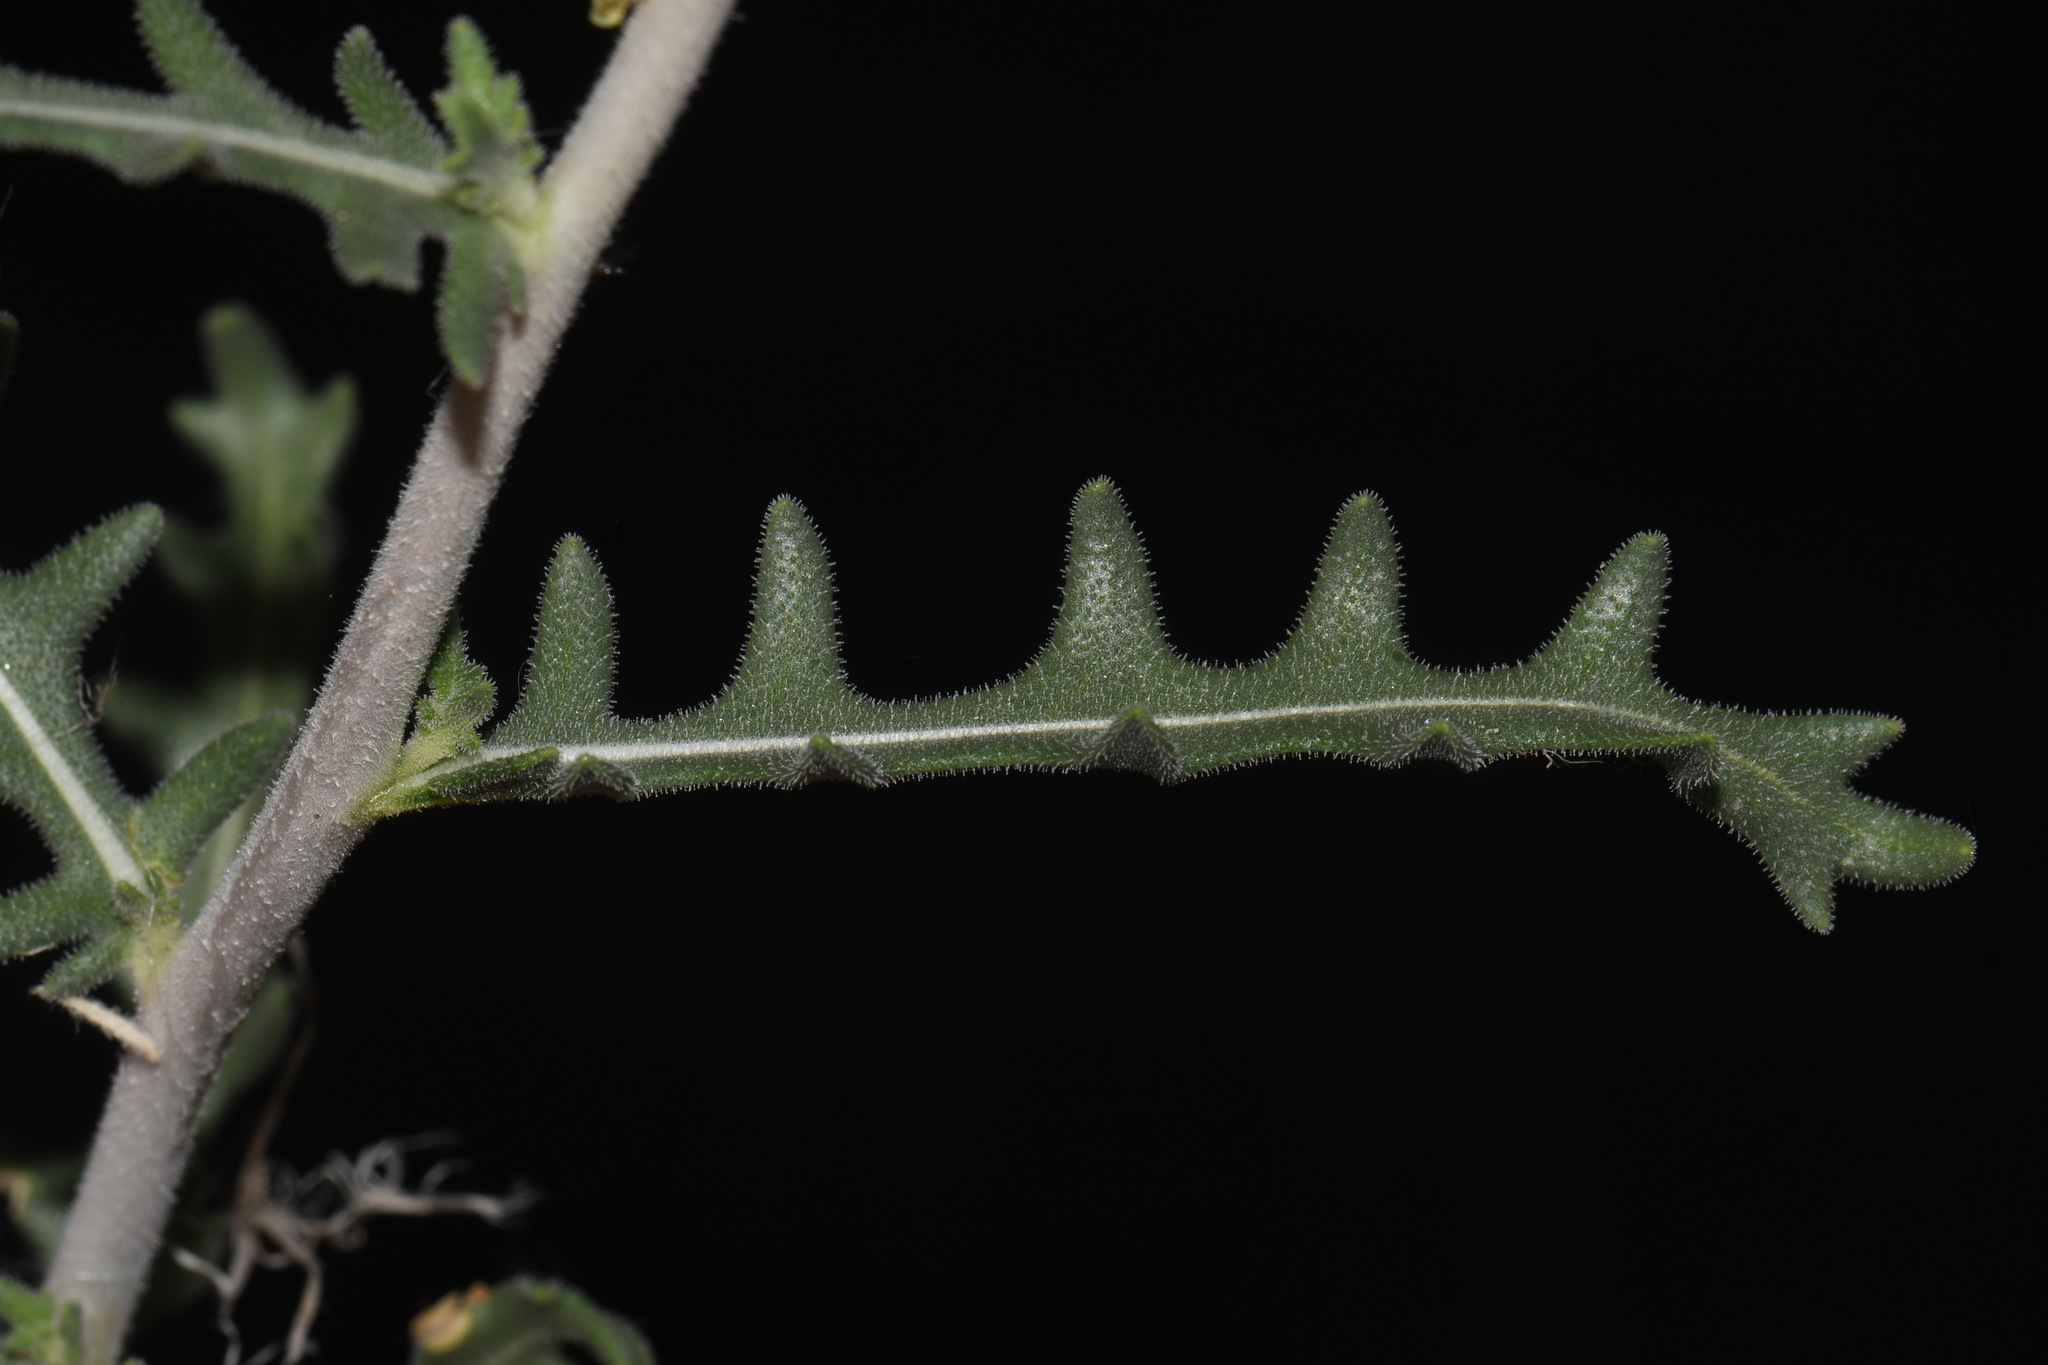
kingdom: Plantae
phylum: Tracheophyta
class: Magnoliopsida
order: Cornales
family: Loasaceae
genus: Mentzelia
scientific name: Mentzelia procera
